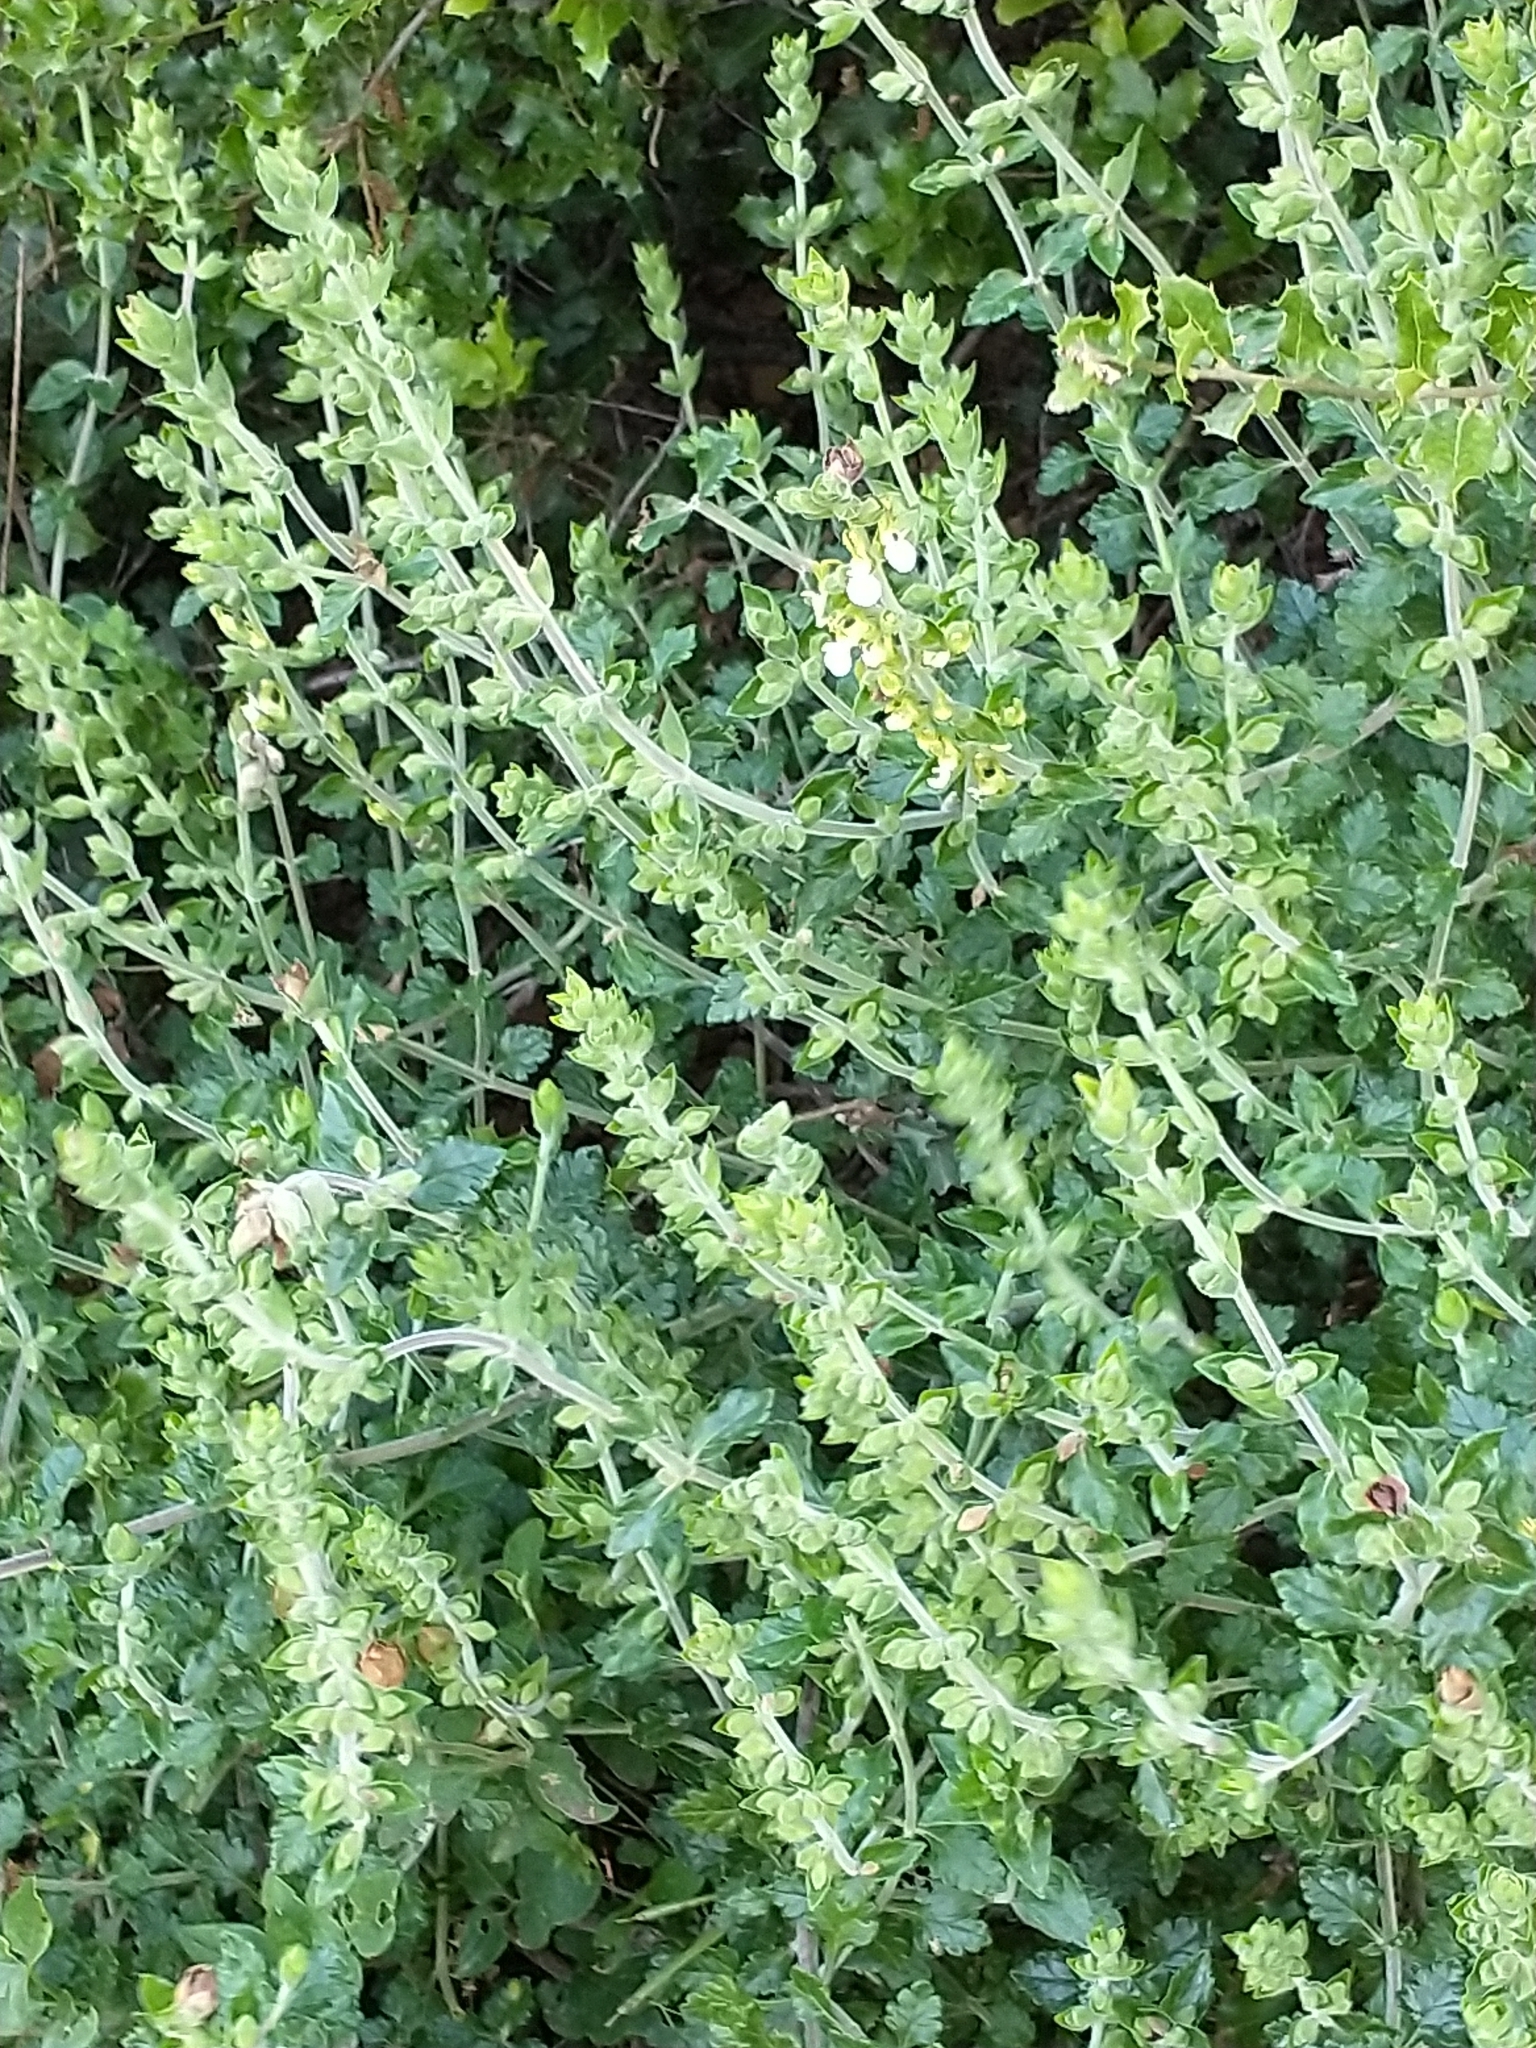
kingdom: Plantae
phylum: Tracheophyta
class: Magnoliopsida
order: Lamiales
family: Lamiaceae
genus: Teucrium
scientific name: Teucrium flavum
